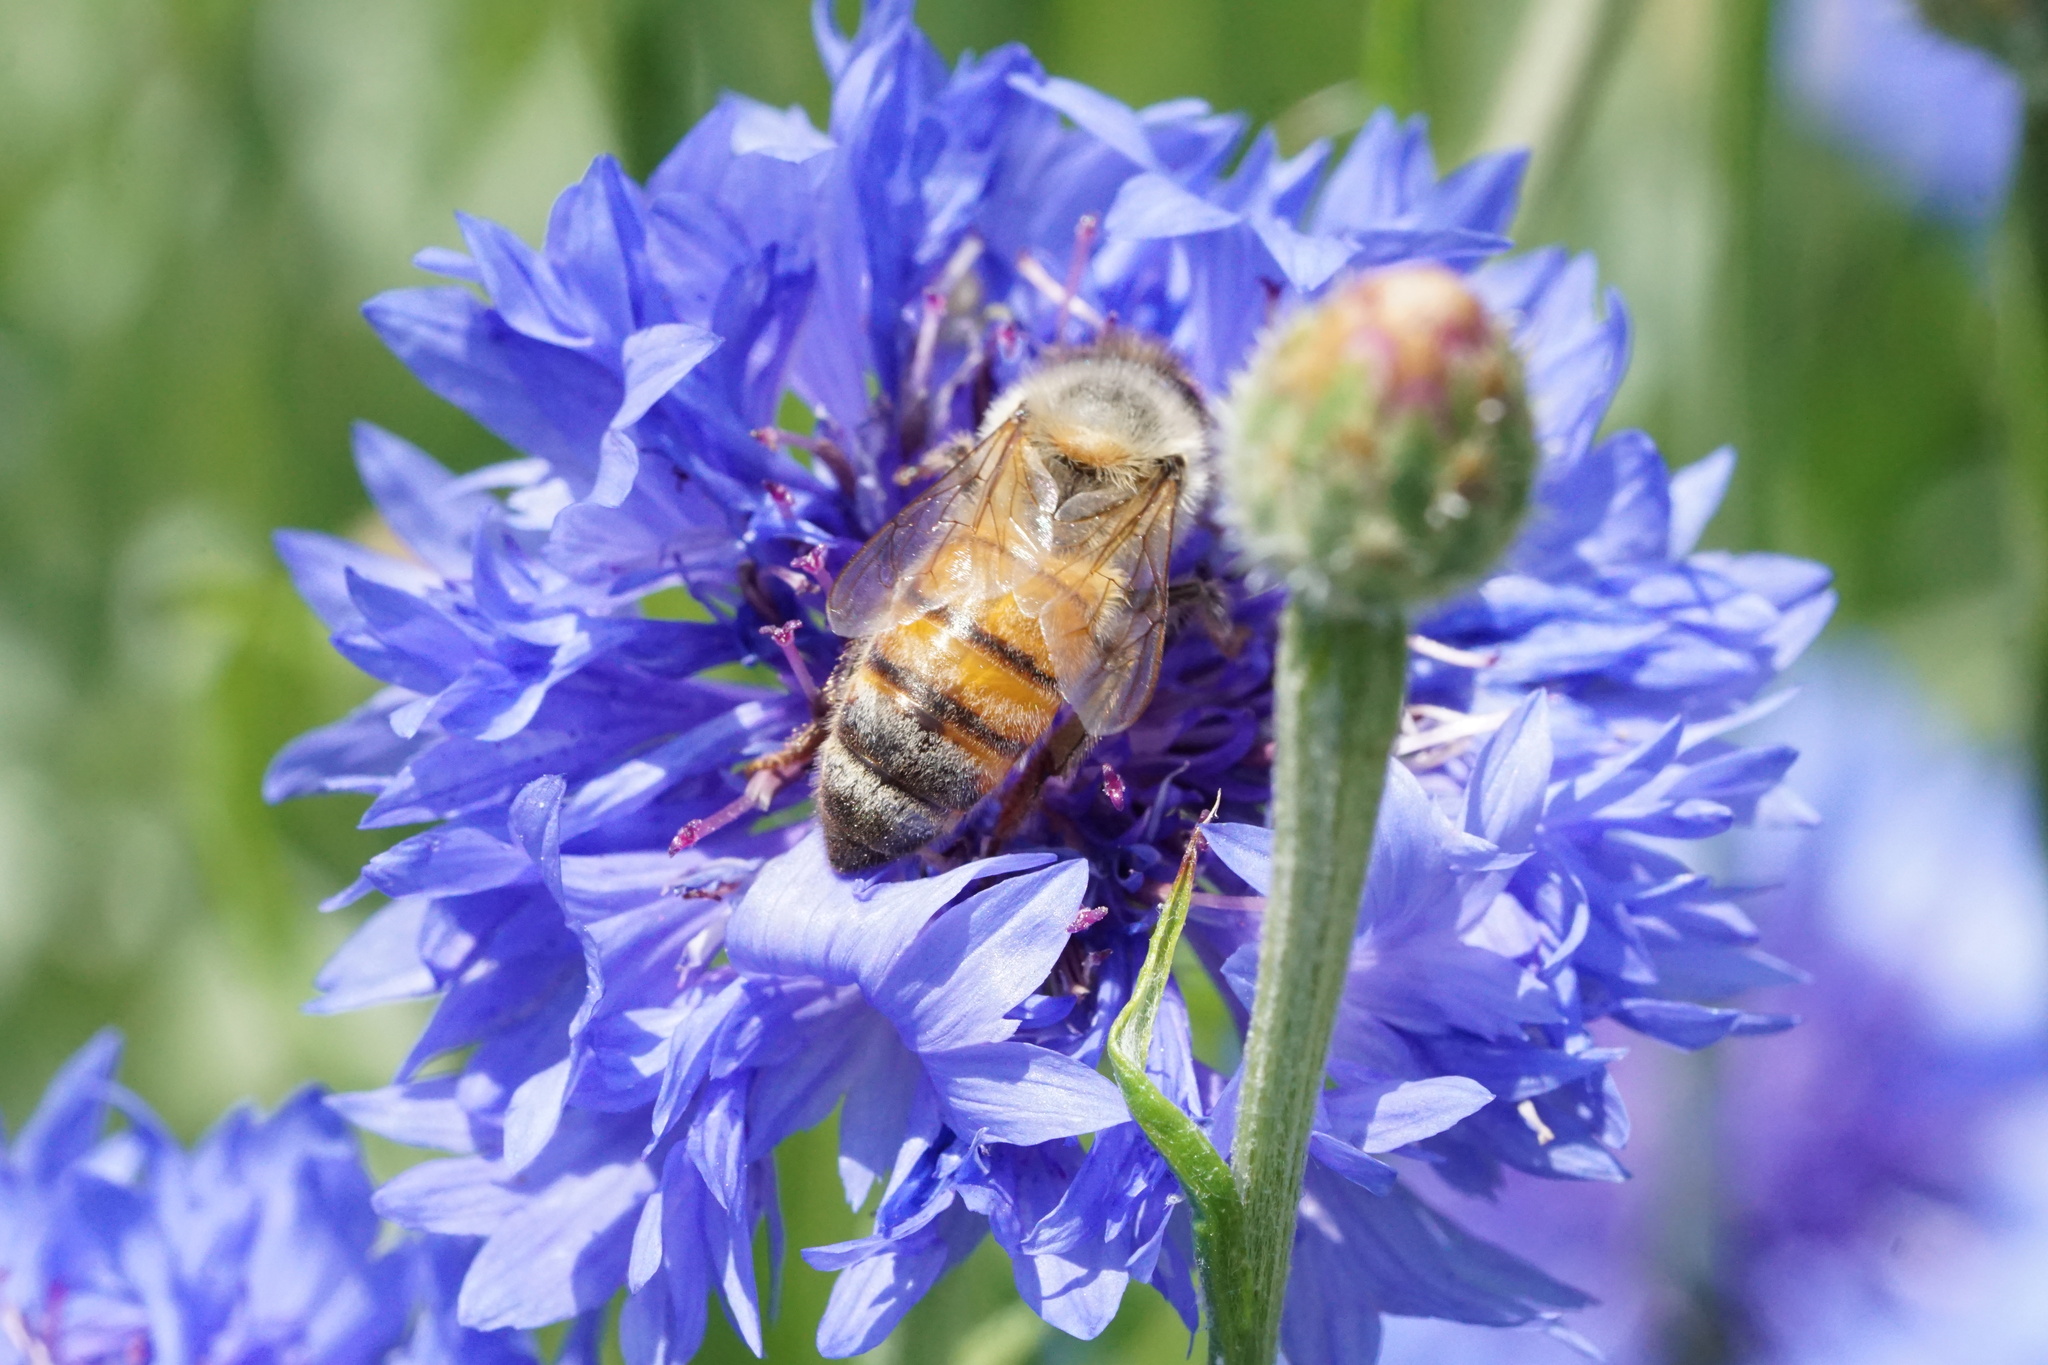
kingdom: Animalia
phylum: Arthropoda
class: Insecta
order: Hymenoptera
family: Apidae
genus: Apis
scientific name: Apis mellifera
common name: Honey bee
